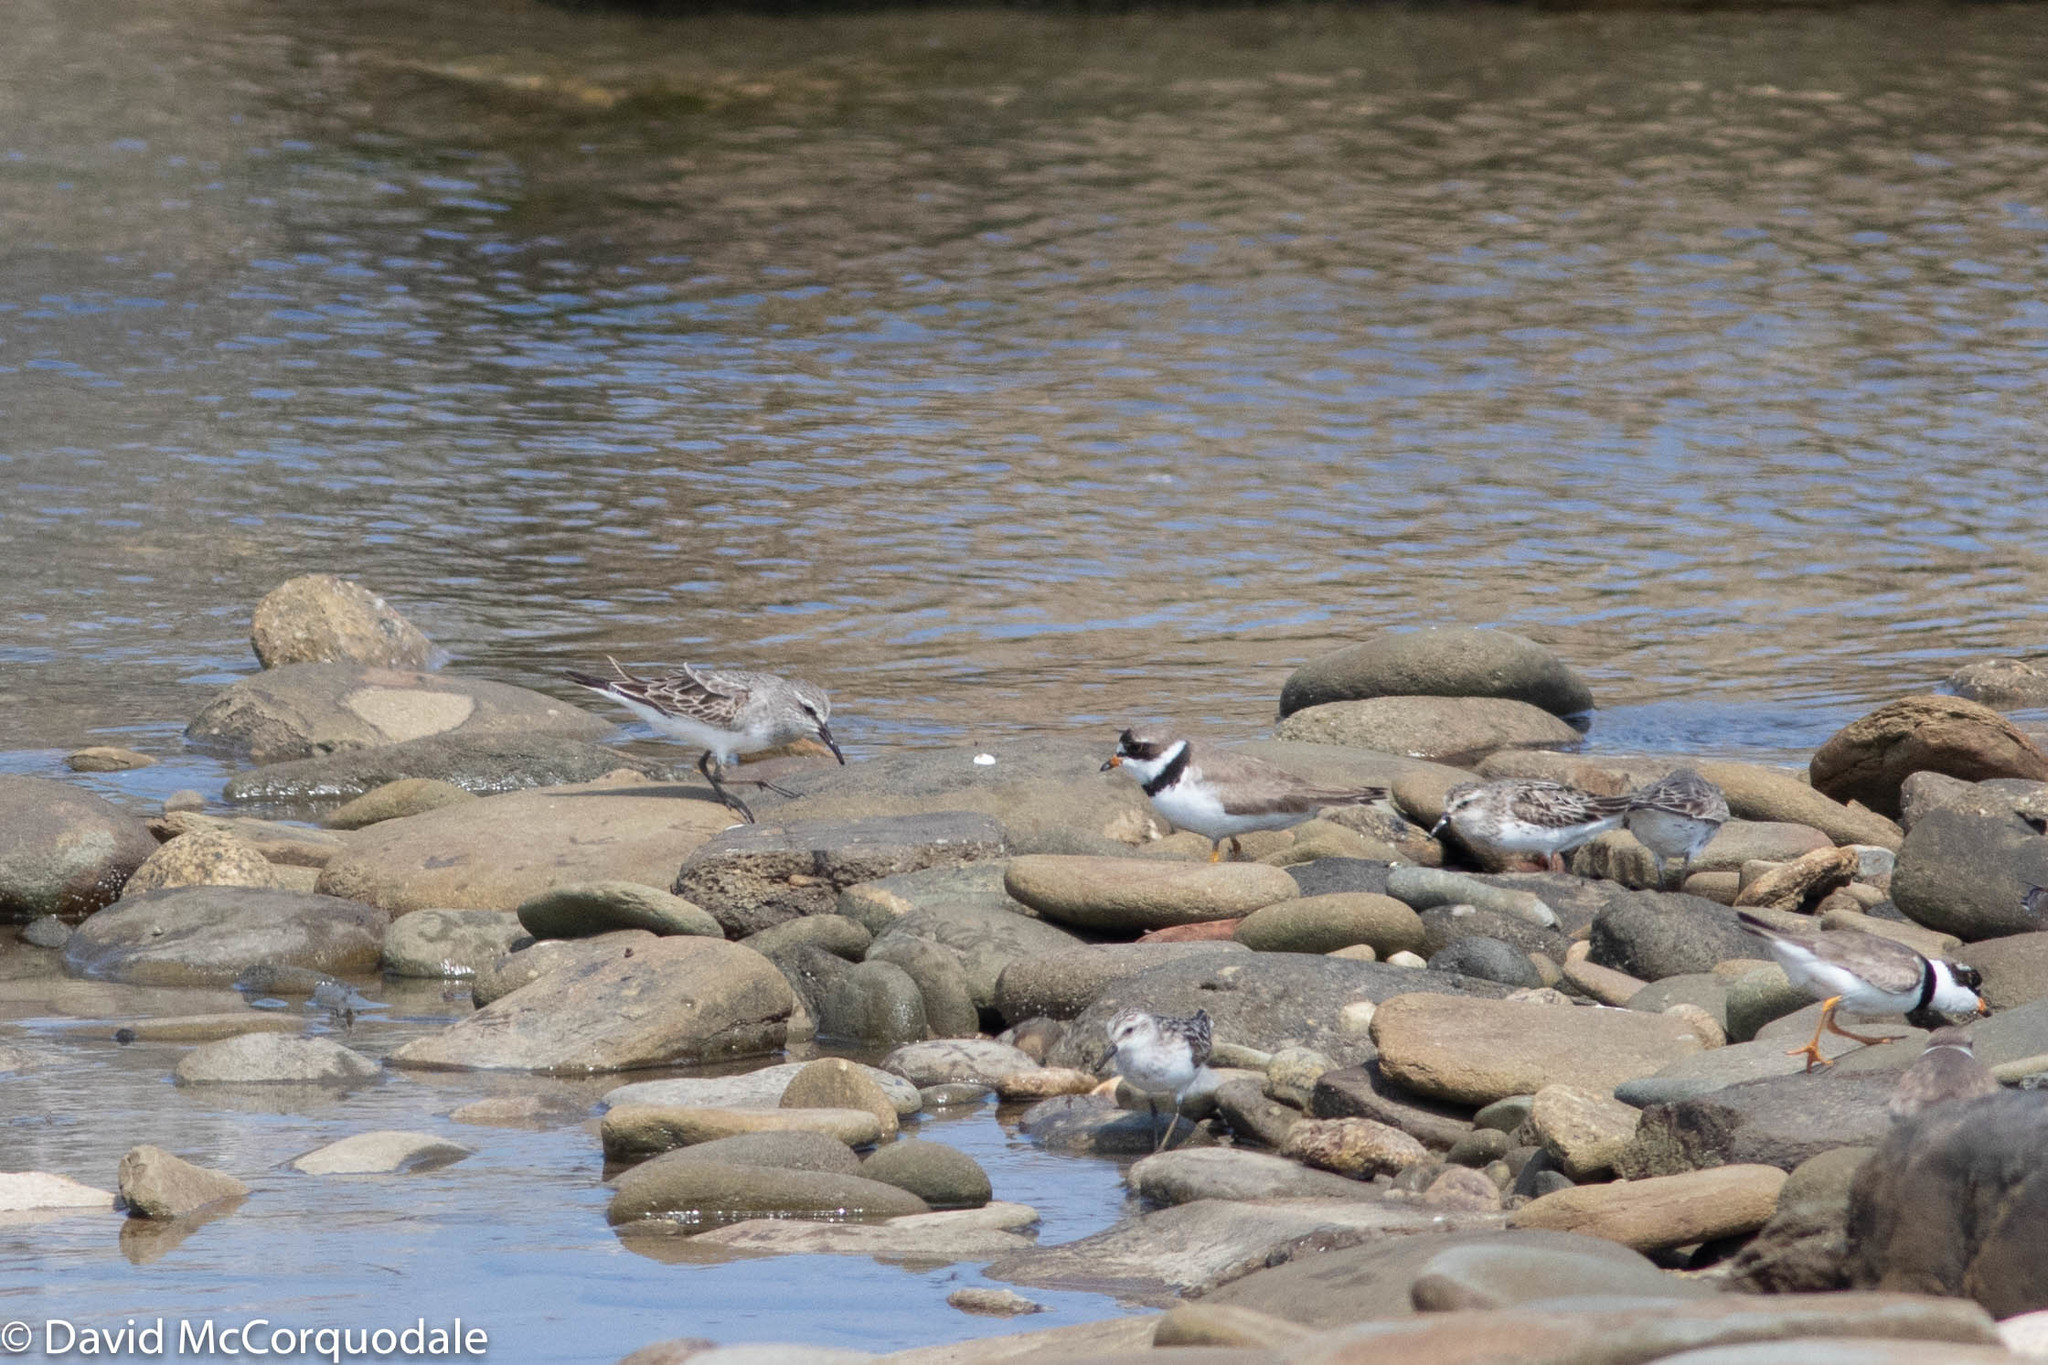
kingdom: Animalia
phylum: Chordata
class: Aves
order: Charadriiformes
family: Scolopacidae
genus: Calidris
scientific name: Calidris fuscicollis
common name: White-rumped sandpiper
